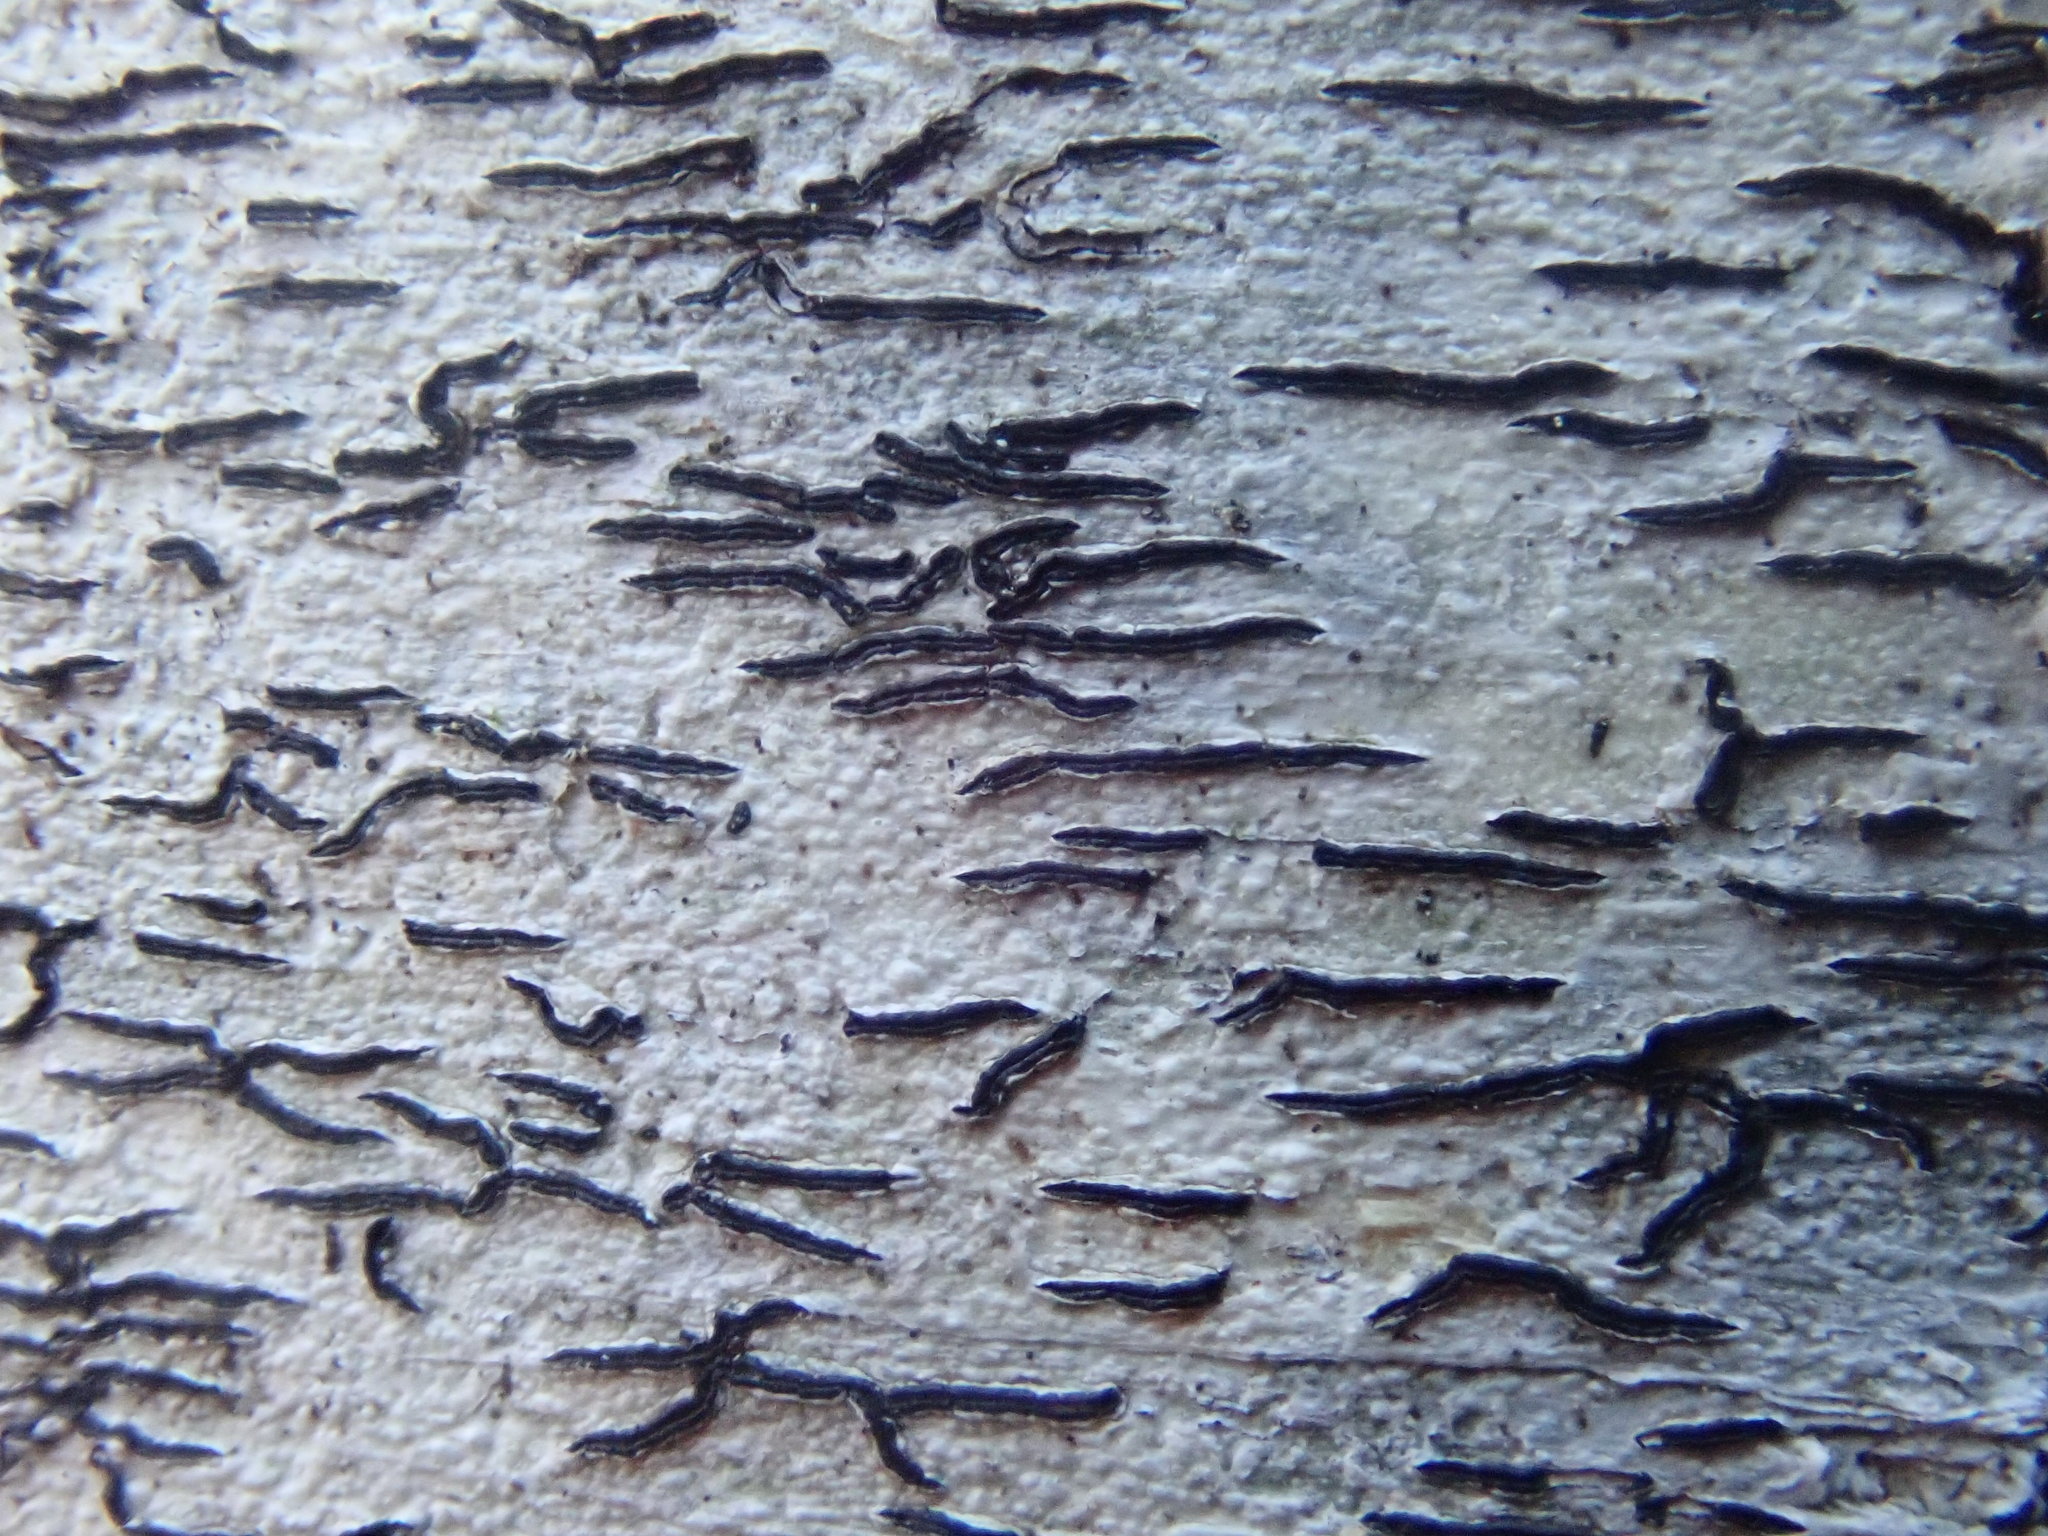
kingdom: Fungi
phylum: Ascomycota
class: Lecanoromycetes
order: Ostropales
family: Graphidaceae
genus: Graphis
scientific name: Graphis scripta
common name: Script lichen
